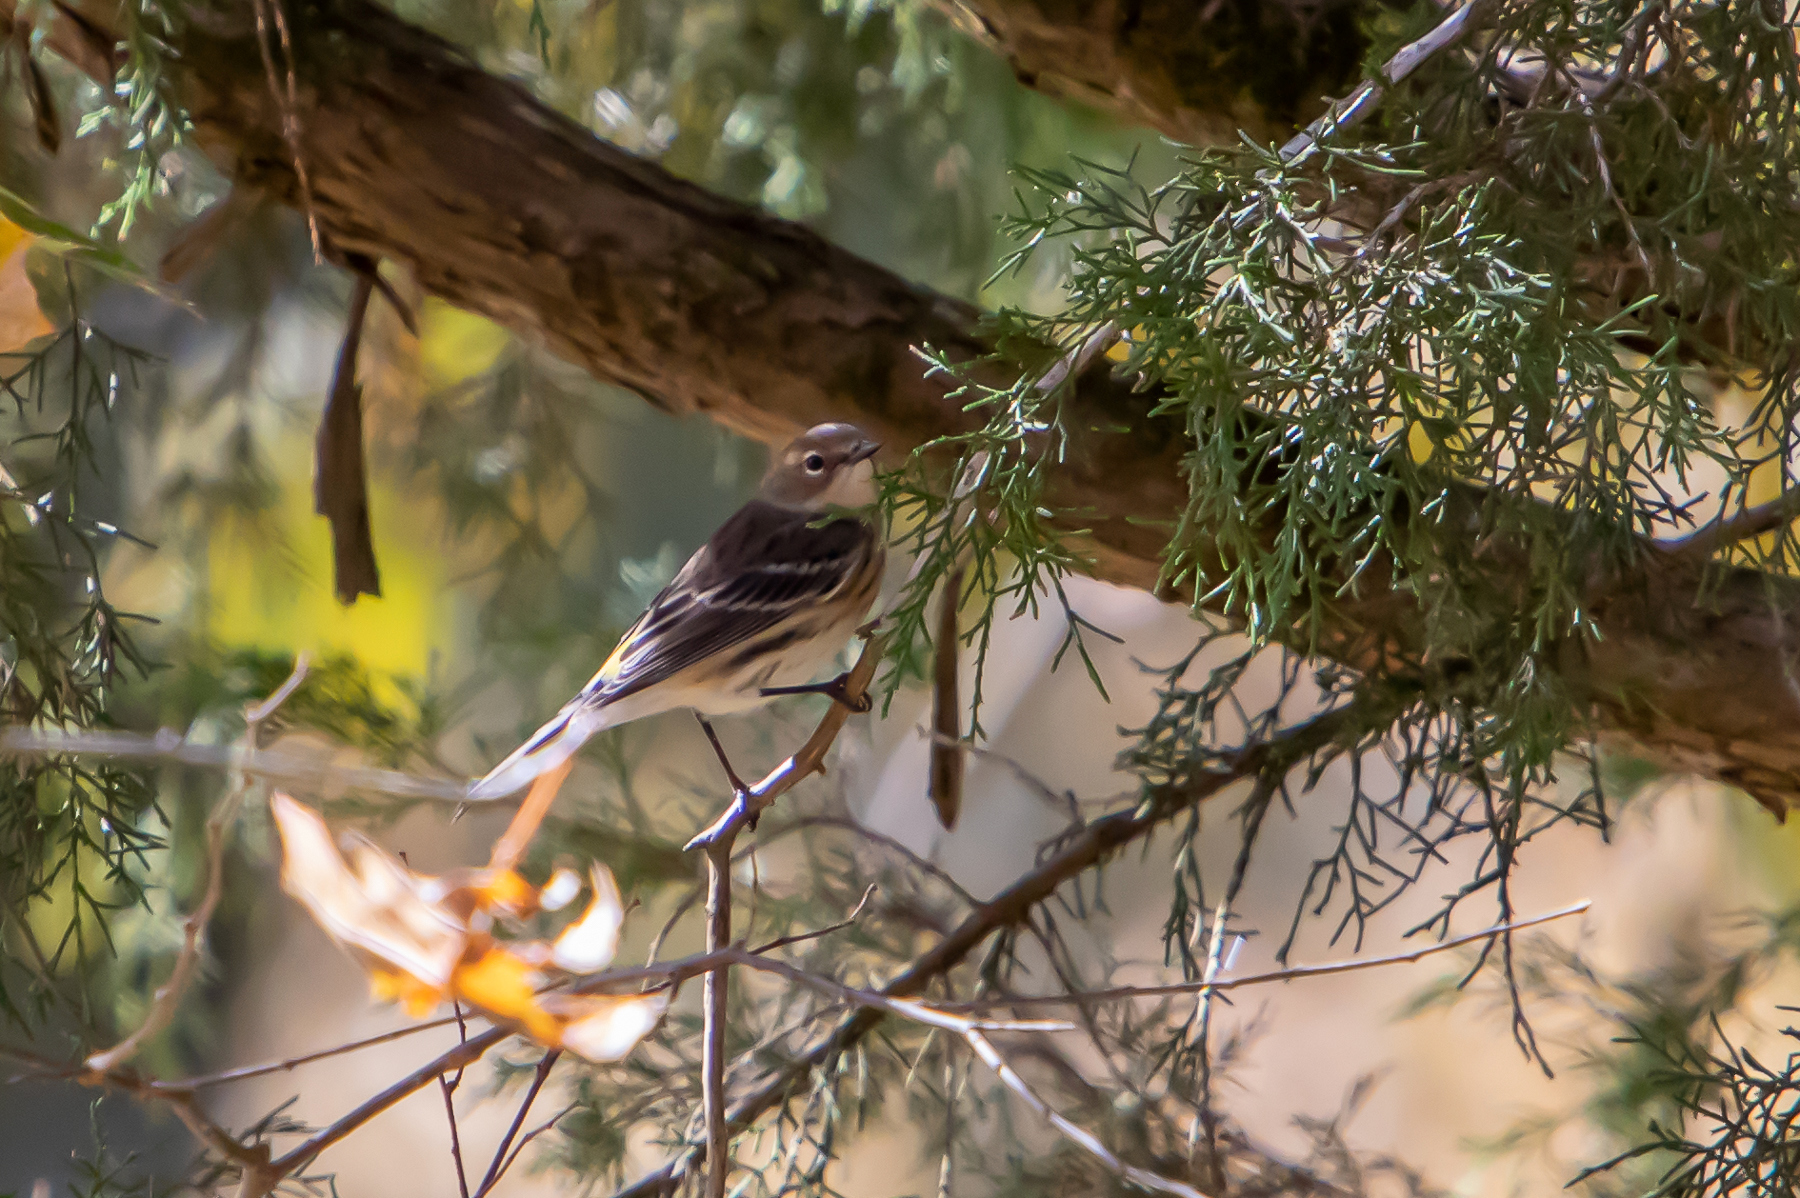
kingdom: Animalia
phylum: Chordata
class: Aves
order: Passeriformes
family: Parulidae
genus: Setophaga
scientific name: Setophaga coronata
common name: Myrtle warbler
